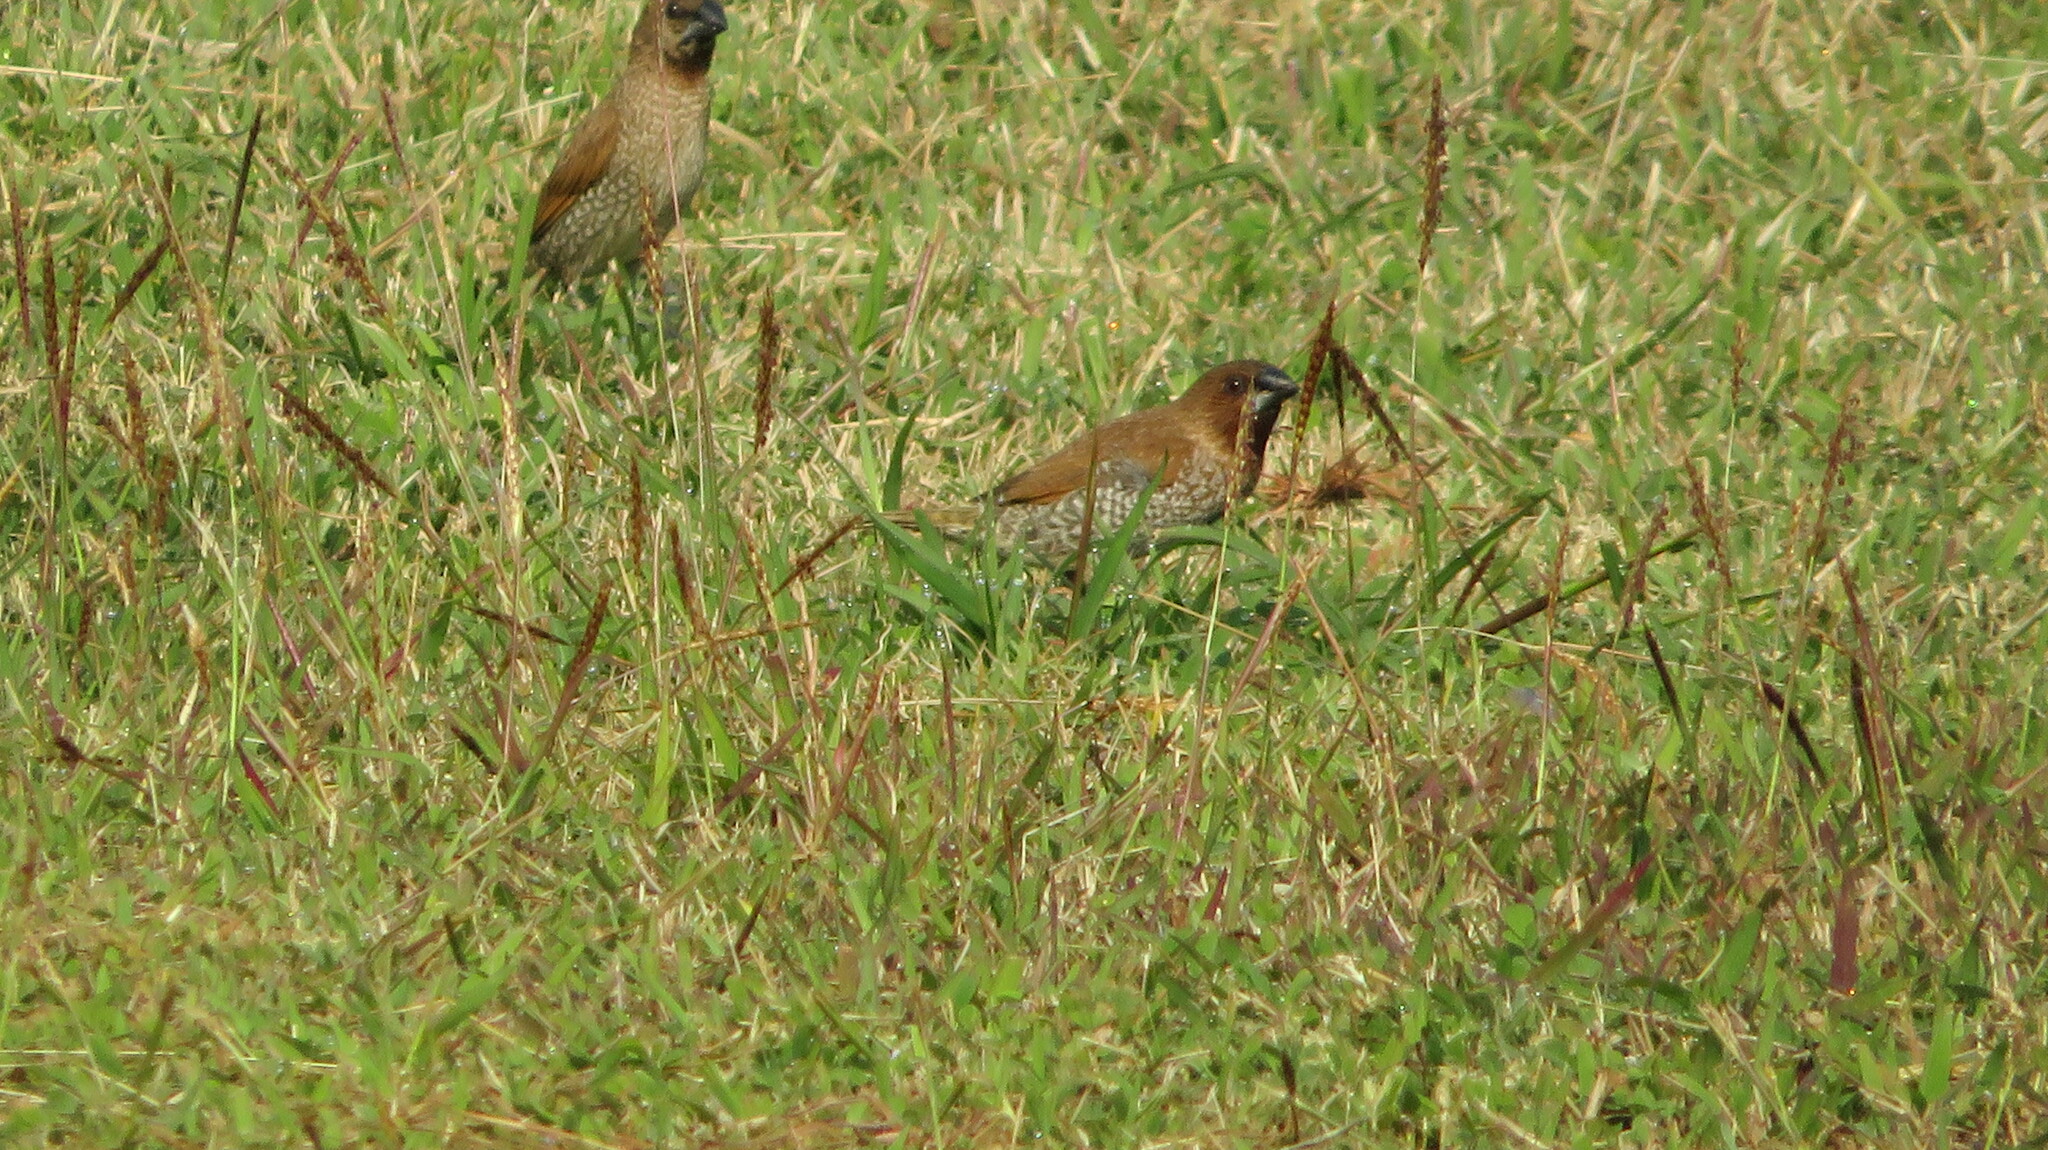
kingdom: Animalia
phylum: Chordata
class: Aves
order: Passeriformes
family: Estrildidae
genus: Lonchura
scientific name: Lonchura punctulata
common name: Scaly-breasted munia
